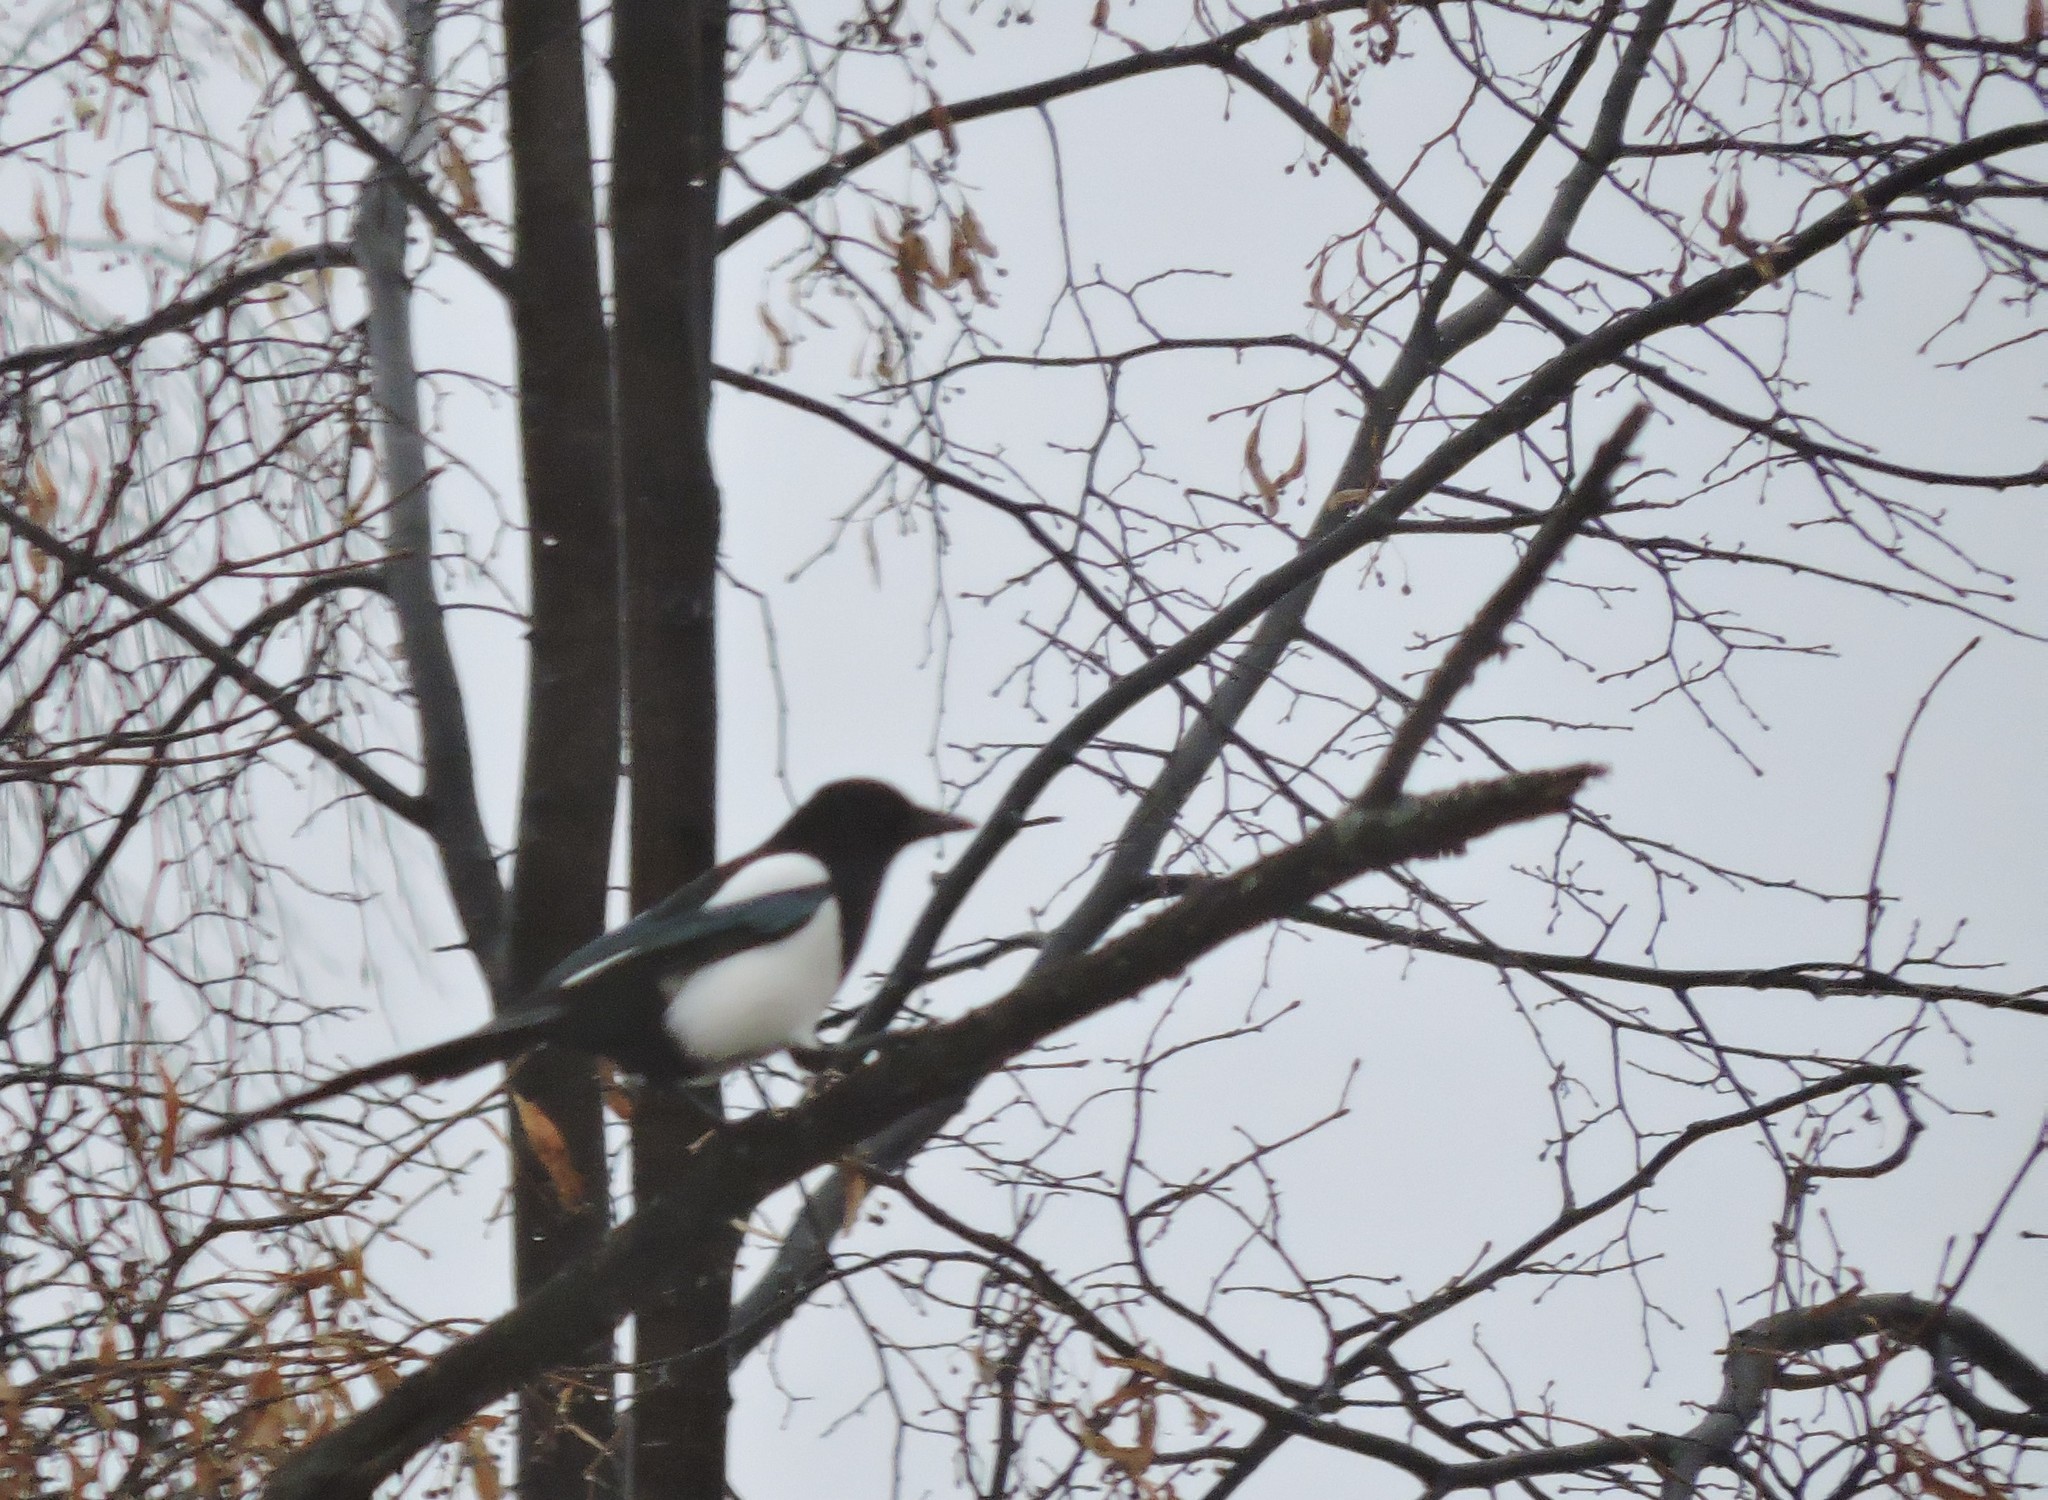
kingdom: Animalia
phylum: Chordata
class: Aves
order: Passeriformes
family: Corvidae
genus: Pica
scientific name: Pica pica
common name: Eurasian magpie
